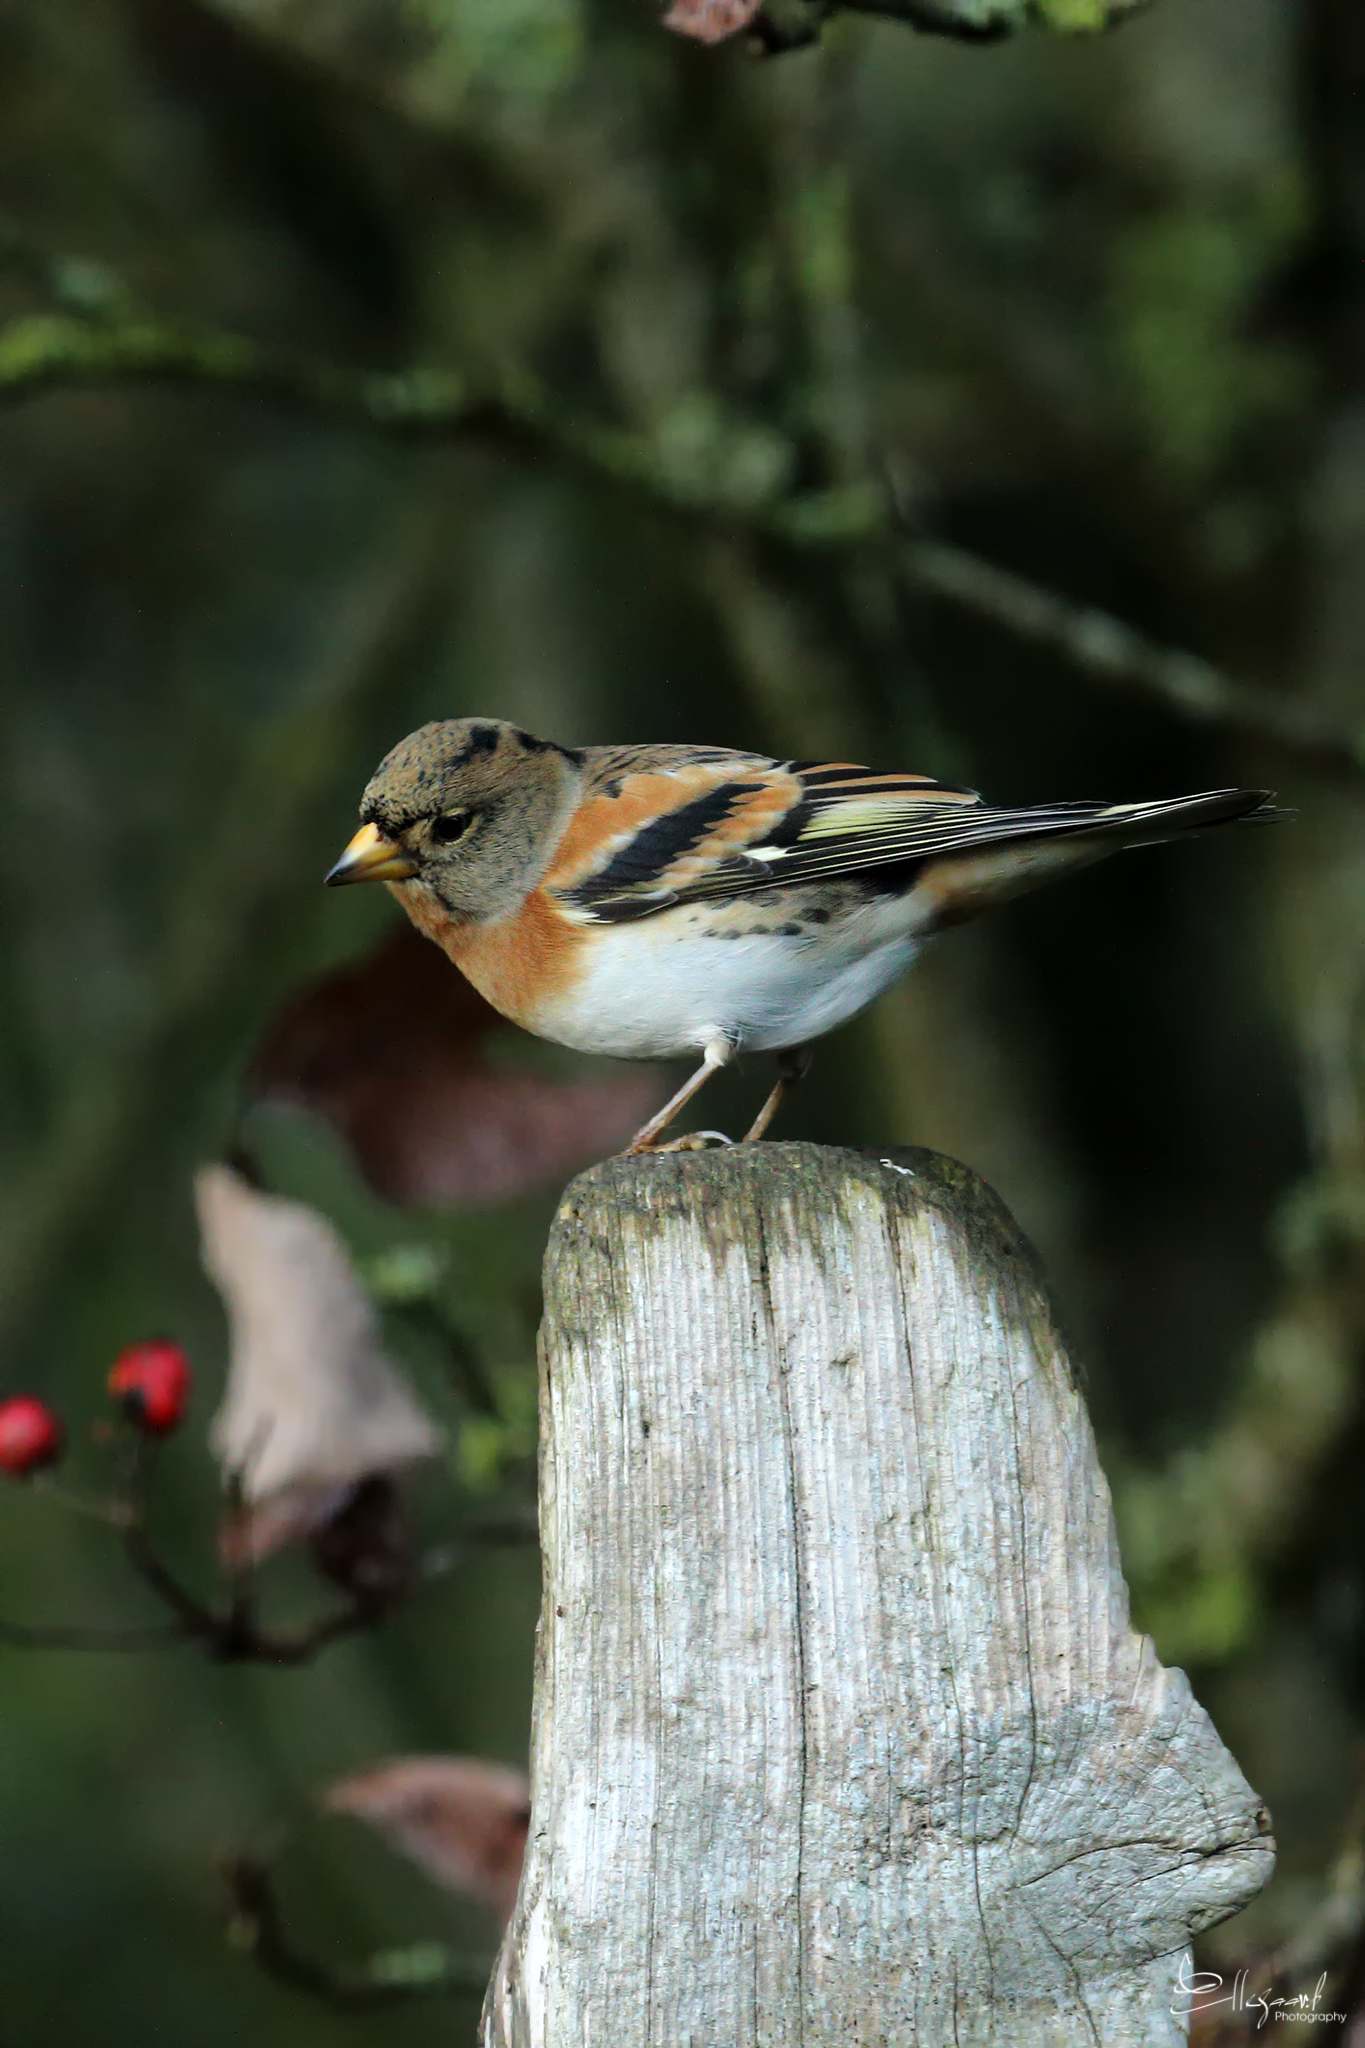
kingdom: Animalia
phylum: Chordata
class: Aves
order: Passeriformes
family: Fringillidae
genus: Fringilla
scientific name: Fringilla montifringilla
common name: Brambling
